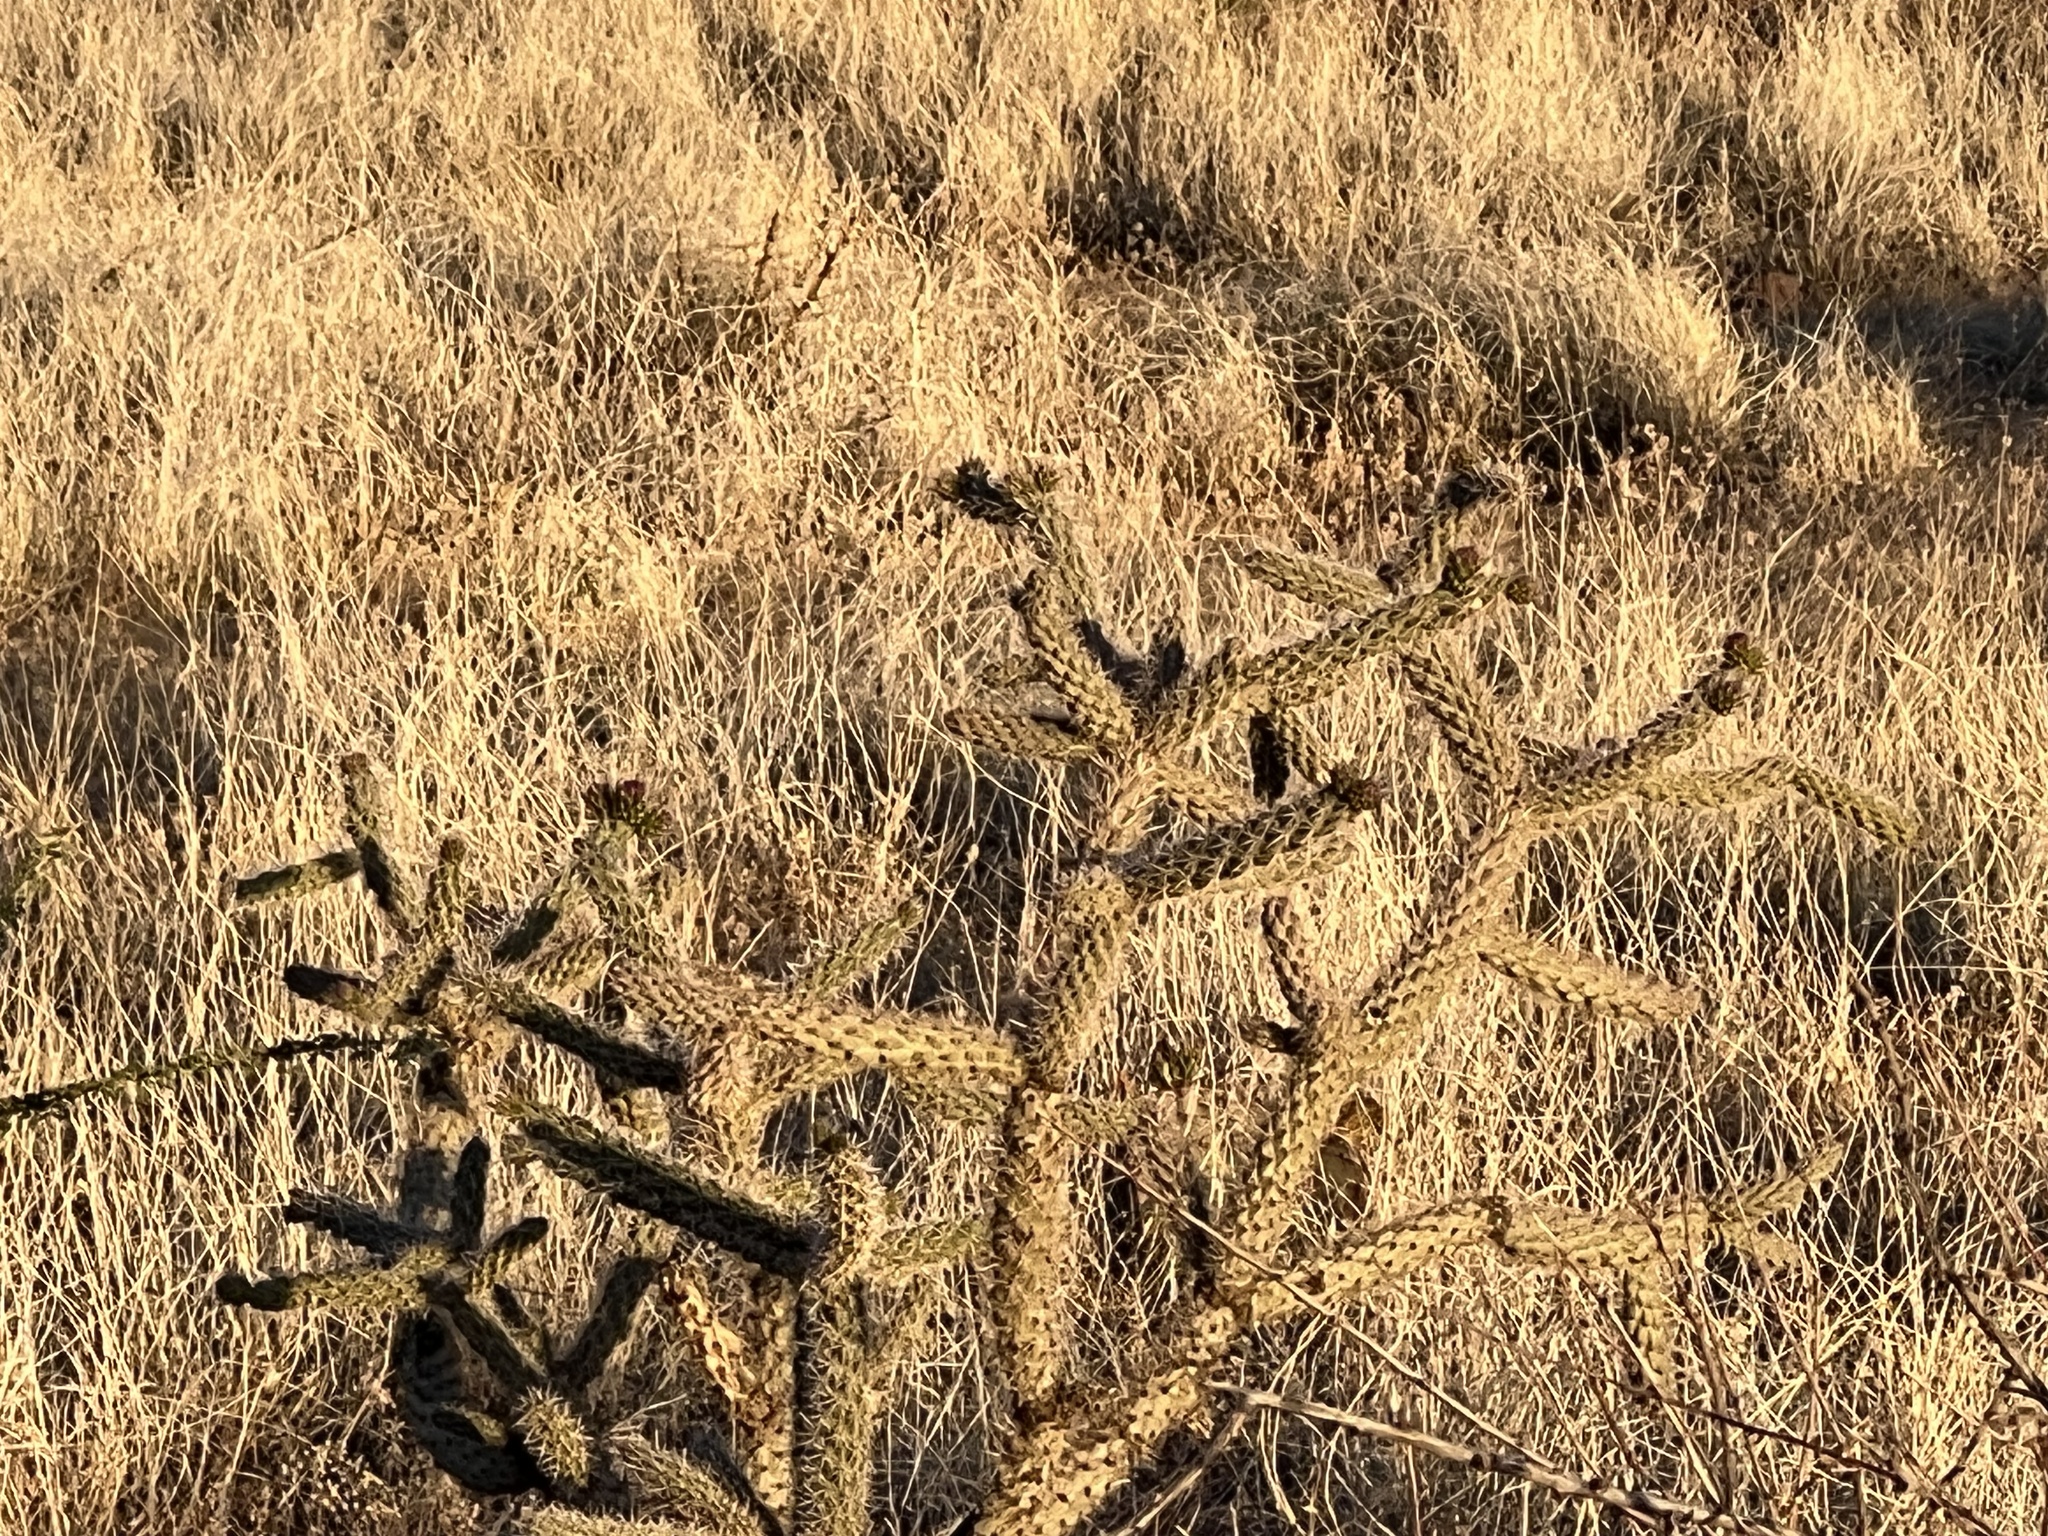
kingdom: Plantae
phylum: Tracheophyta
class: Magnoliopsida
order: Caryophyllales
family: Cactaceae
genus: Cylindropuntia
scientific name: Cylindropuntia imbricata
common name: Candelabrum cactus
